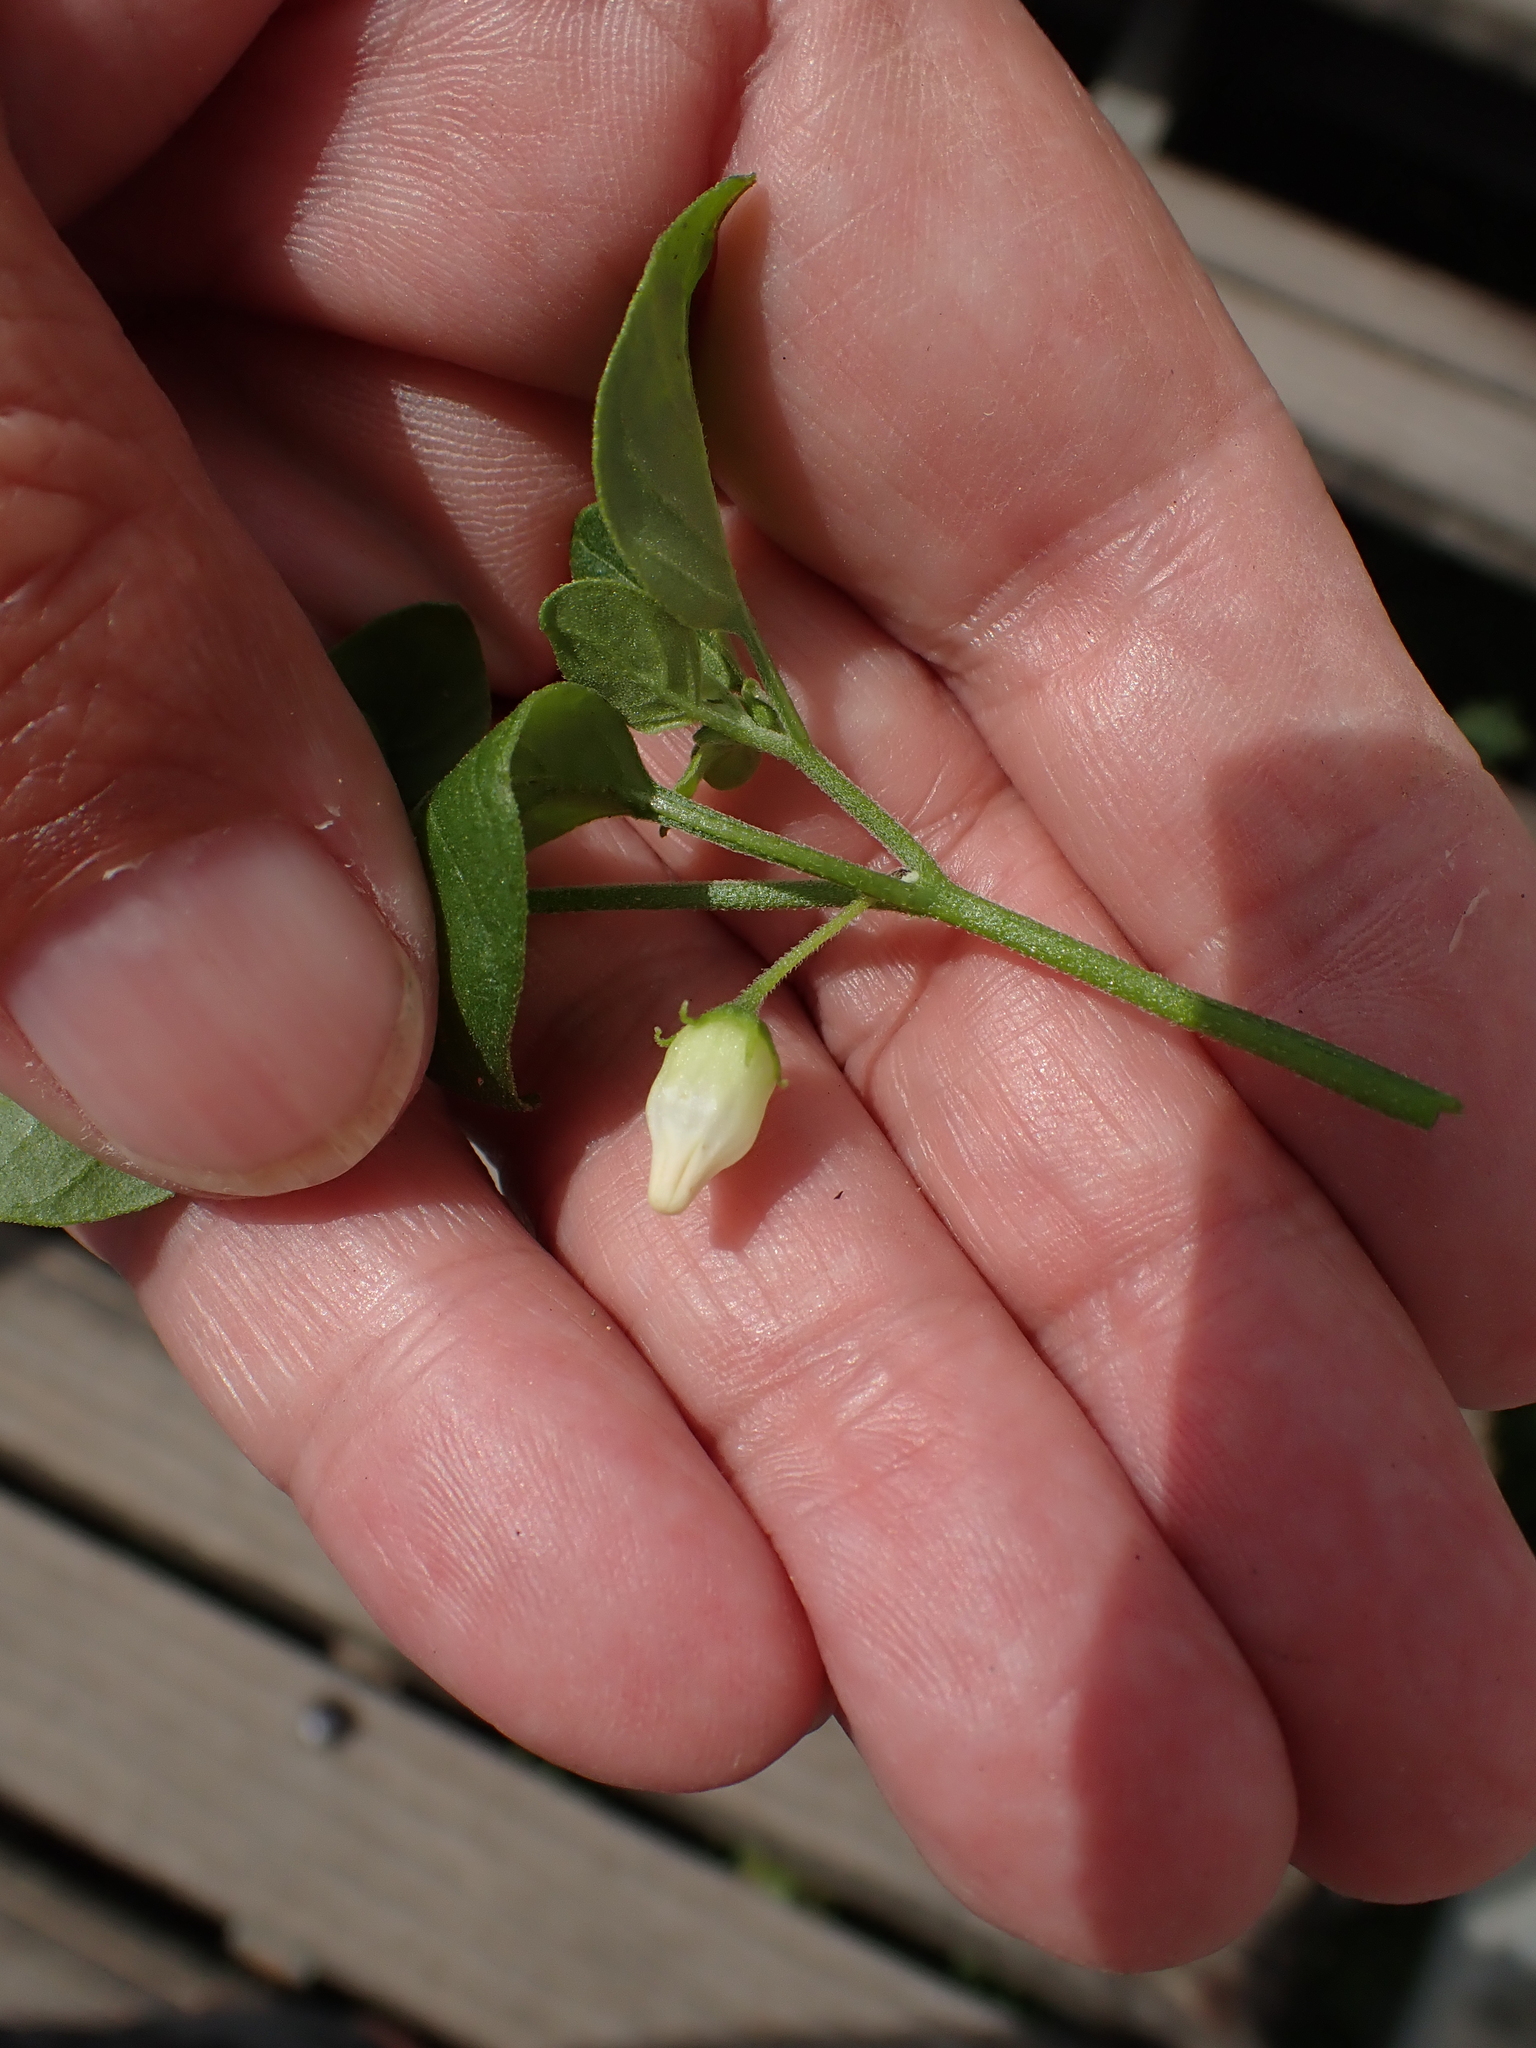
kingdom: Plantae
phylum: Tracheophyta
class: Magnoliopsida
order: Solanales
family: Solanaceae
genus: Salpichroa
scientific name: Salpichroa origanifolia
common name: Lily-of-the-valley-vine
